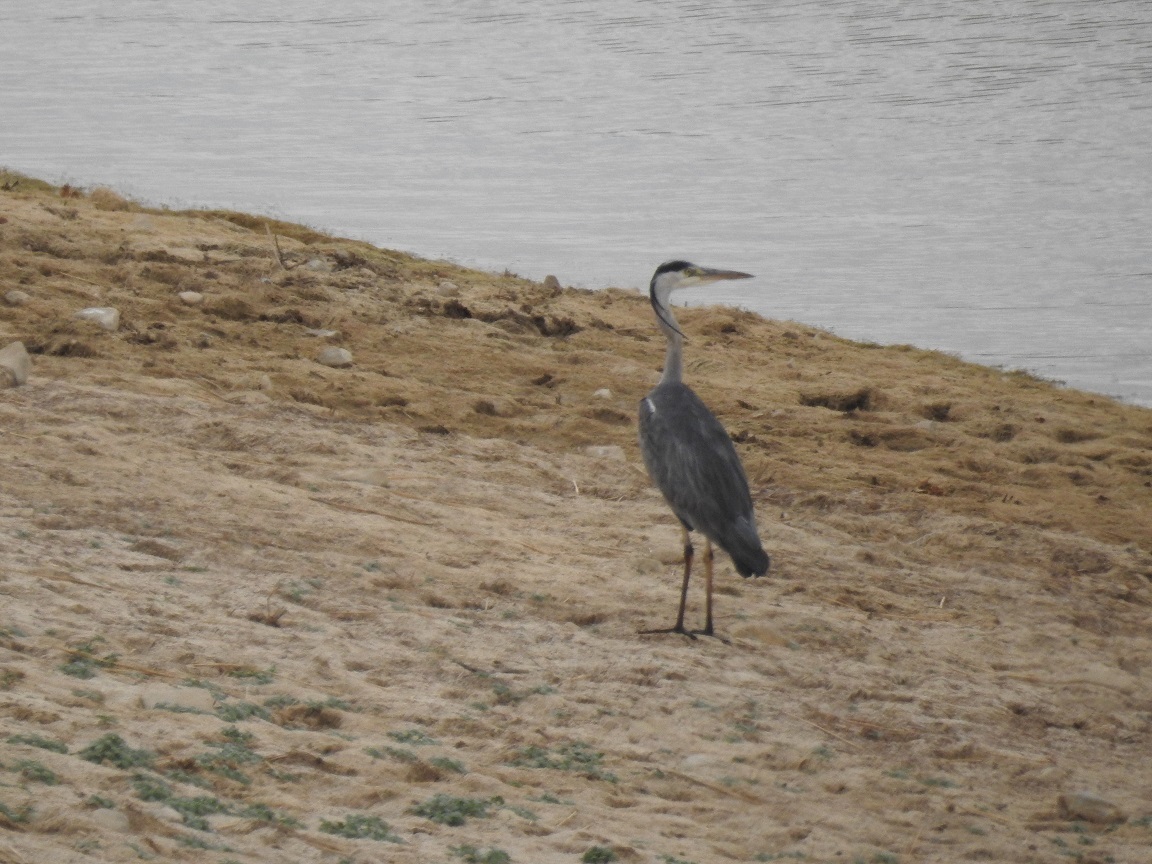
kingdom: Animalia
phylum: Chordata
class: Aves
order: Pelecaniformes
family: Ardeidae
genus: Ardea
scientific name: Ardea cinerea
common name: Grey heron
